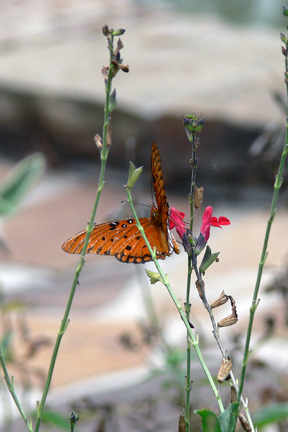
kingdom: Animalia
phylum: Arthropoda
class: Insecta
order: Lepidoptera
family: Nymphalidae
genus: Dione
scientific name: Dione vanillae
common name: Gulf fritillary
